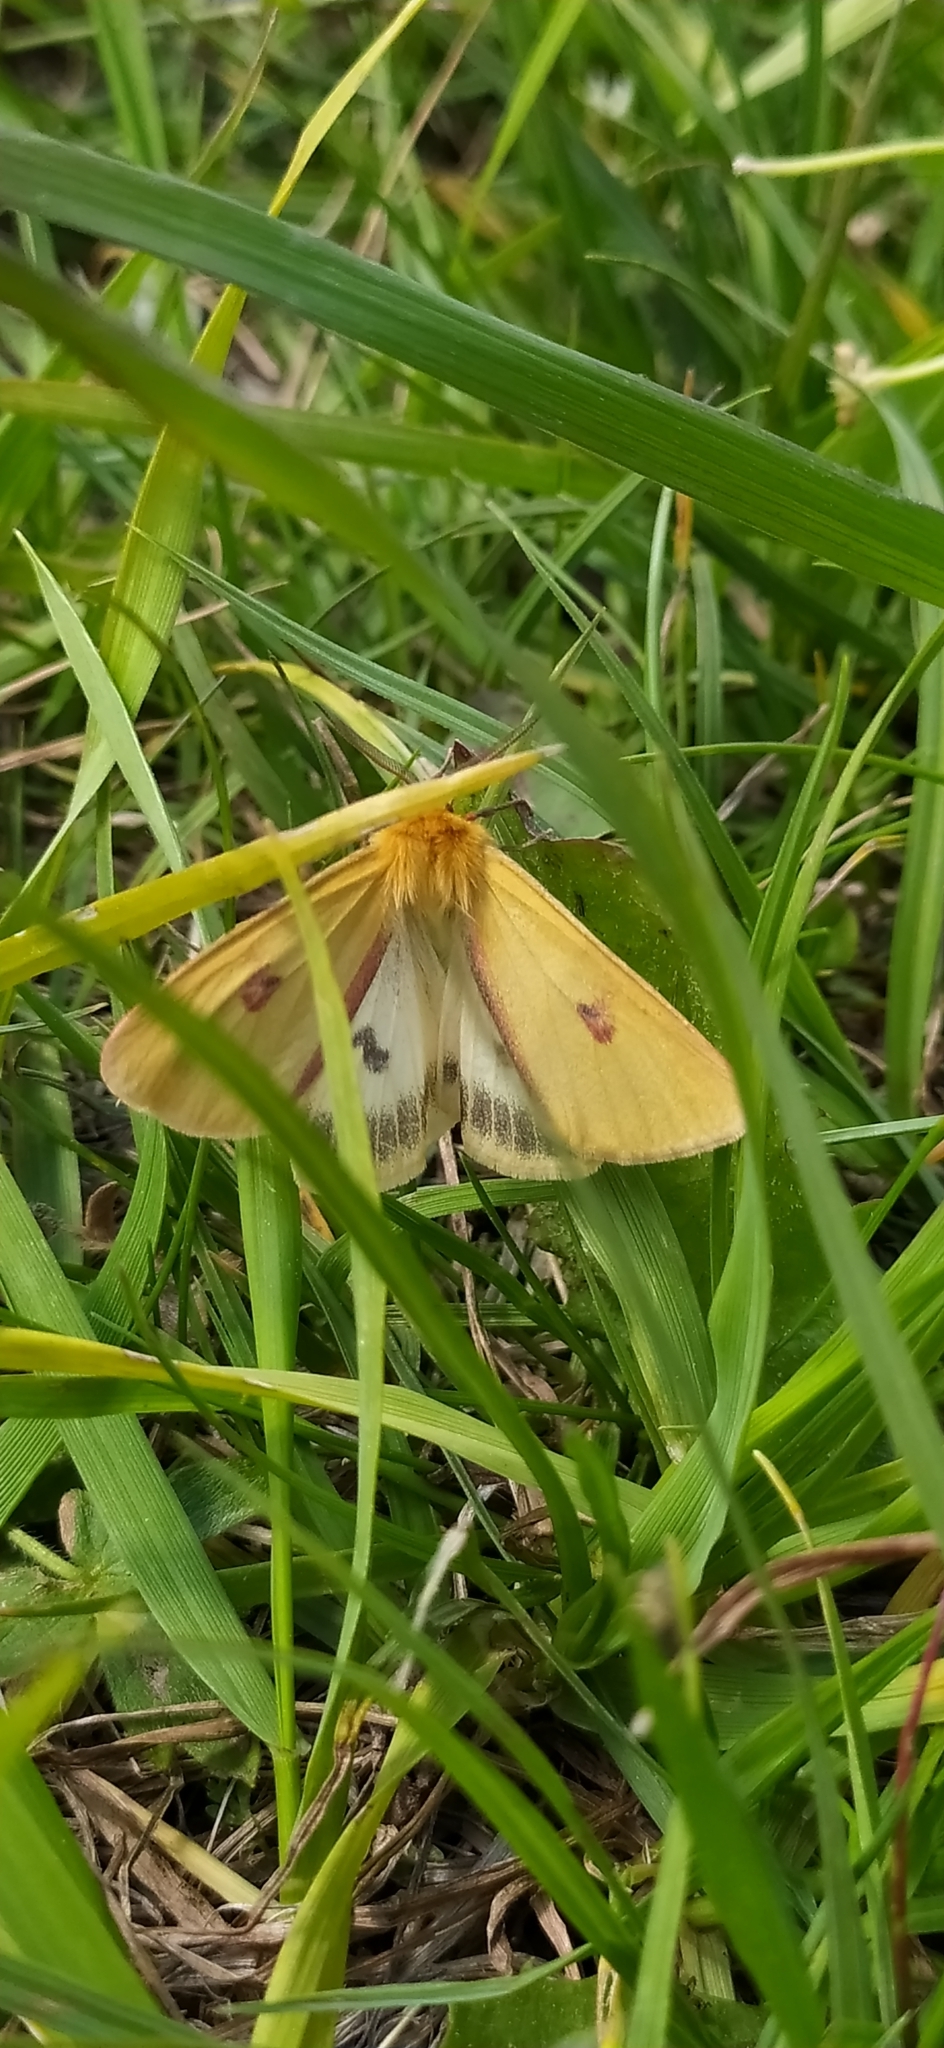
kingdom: Animalia
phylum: Arthropoda
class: Insecta
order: Lepidoptera
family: Erebidae
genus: Diacrisia
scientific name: Diacrisia sannio
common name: Clouded buff
